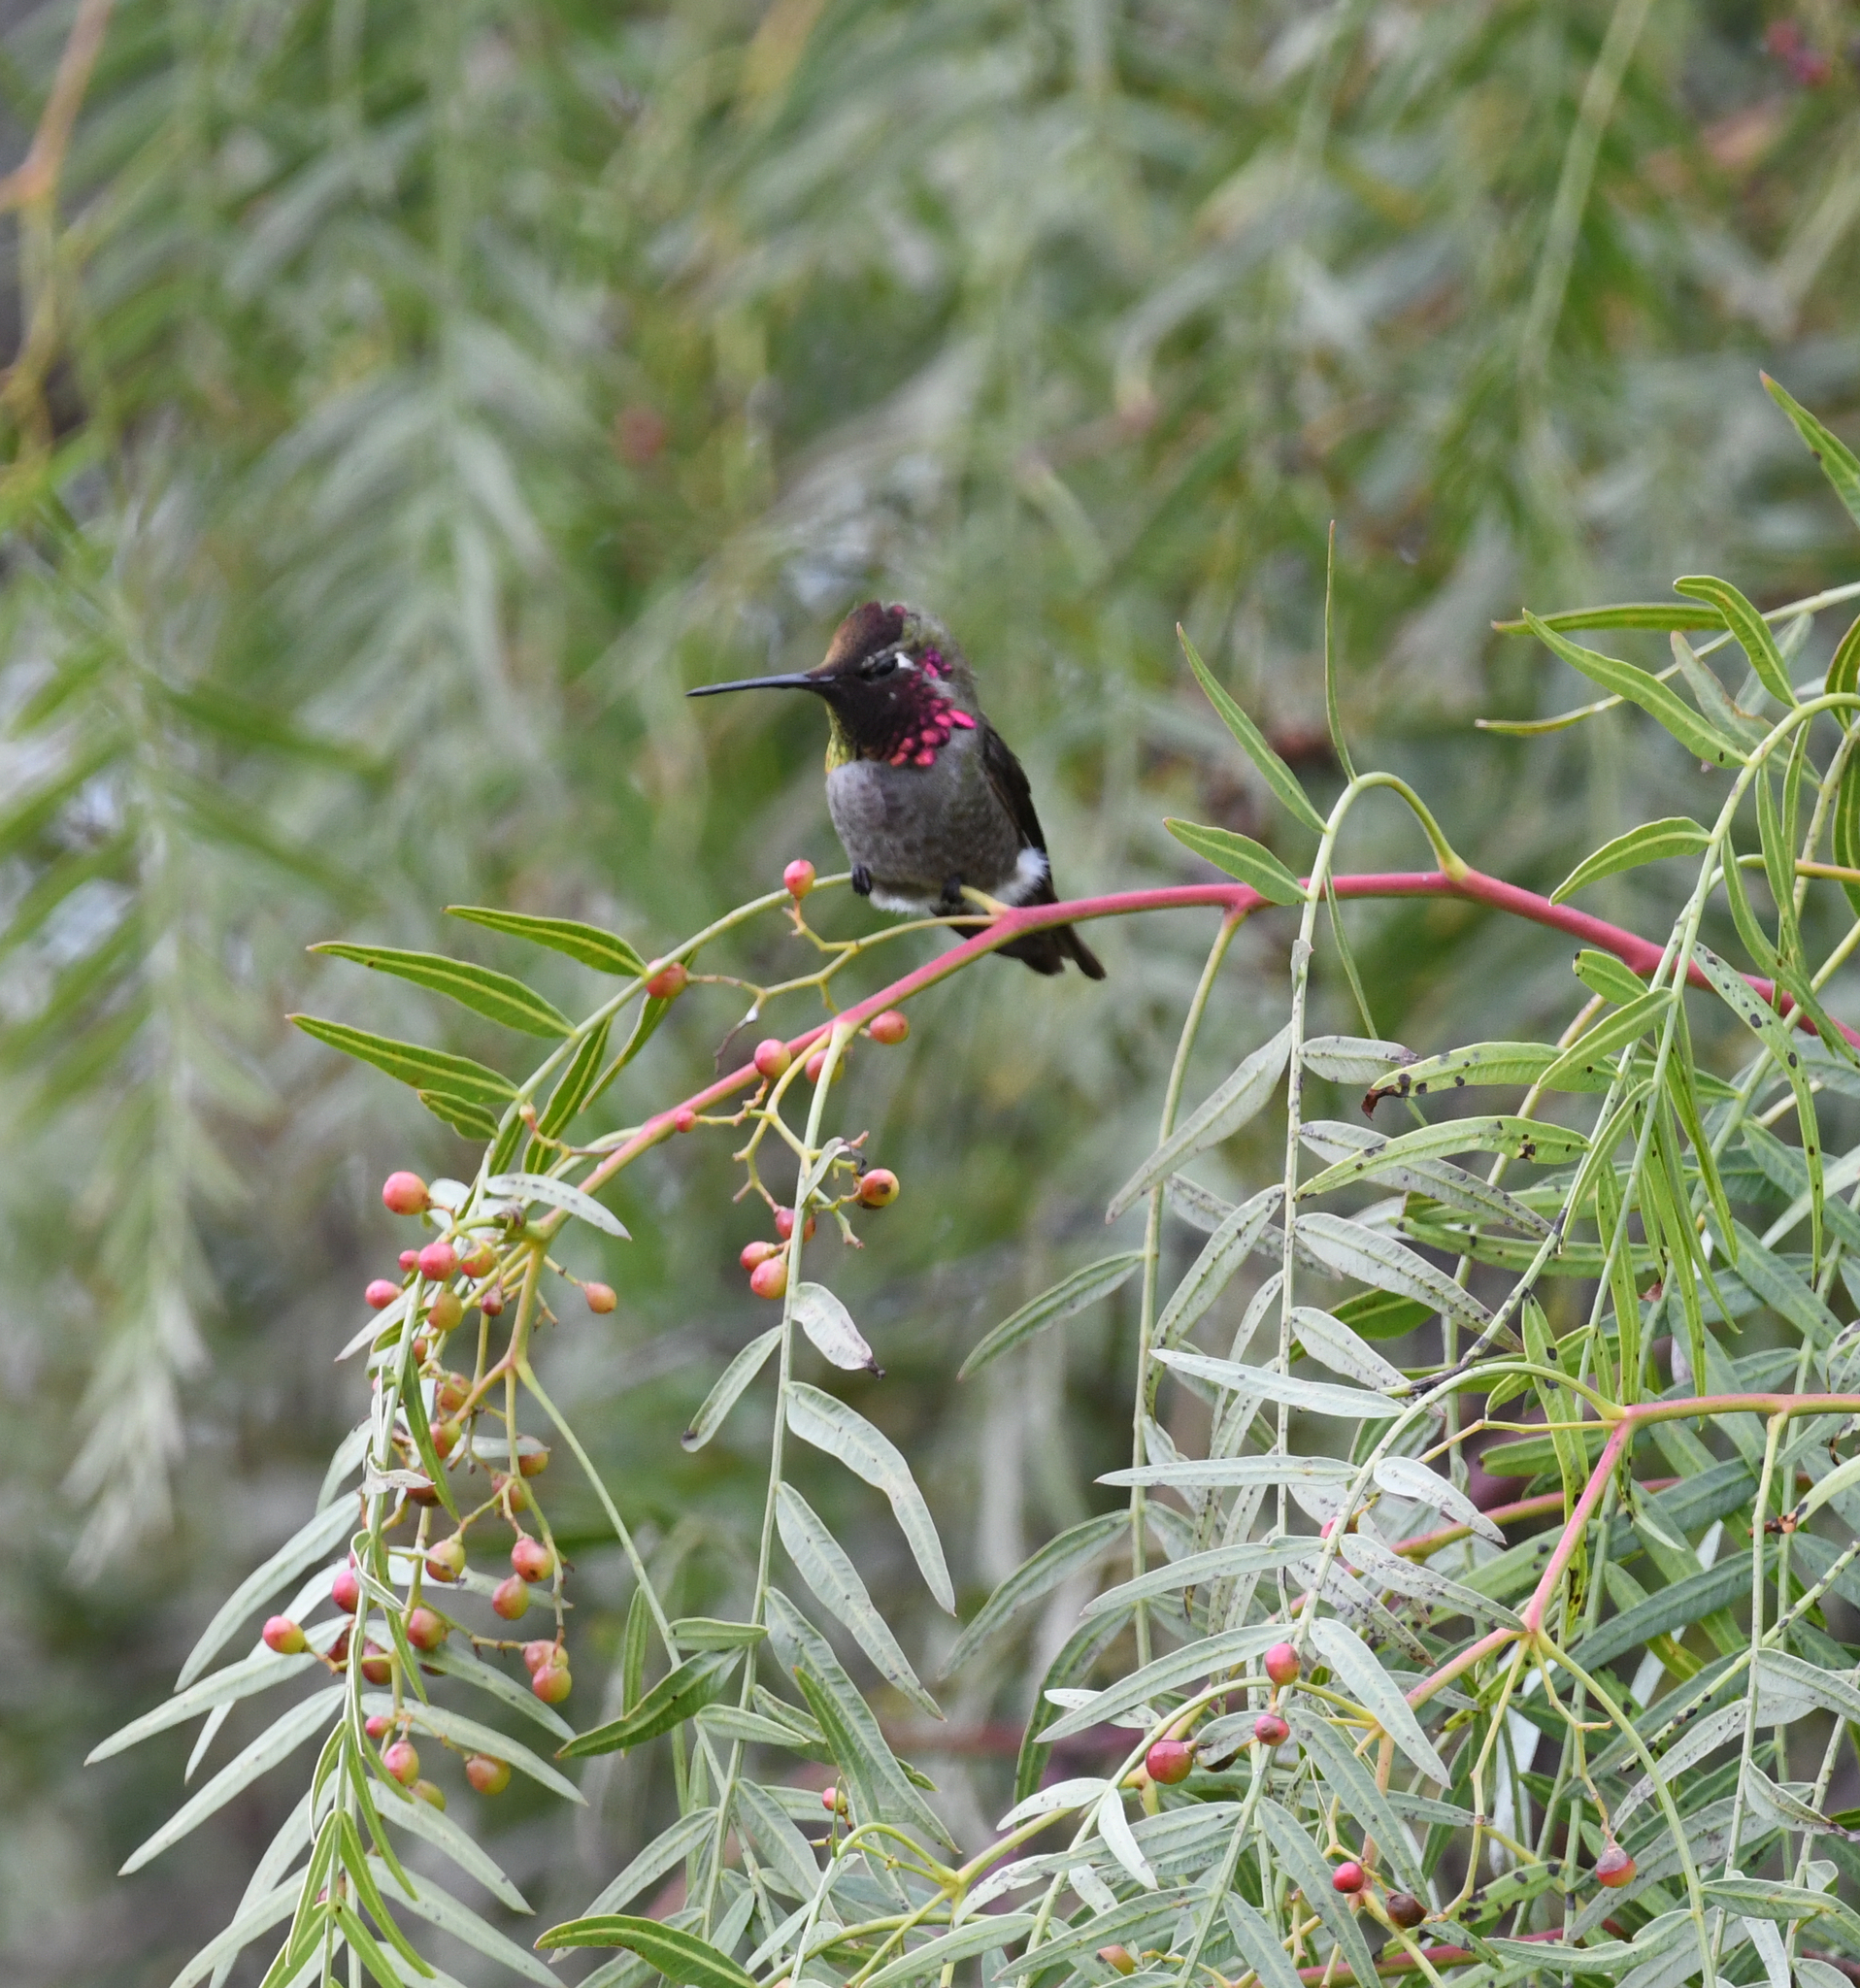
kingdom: Animalia
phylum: Chordata
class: Aves
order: Apodiformes
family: Trochilidae
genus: Calypte
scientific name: Calypte anna
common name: Anna's hummingbird
